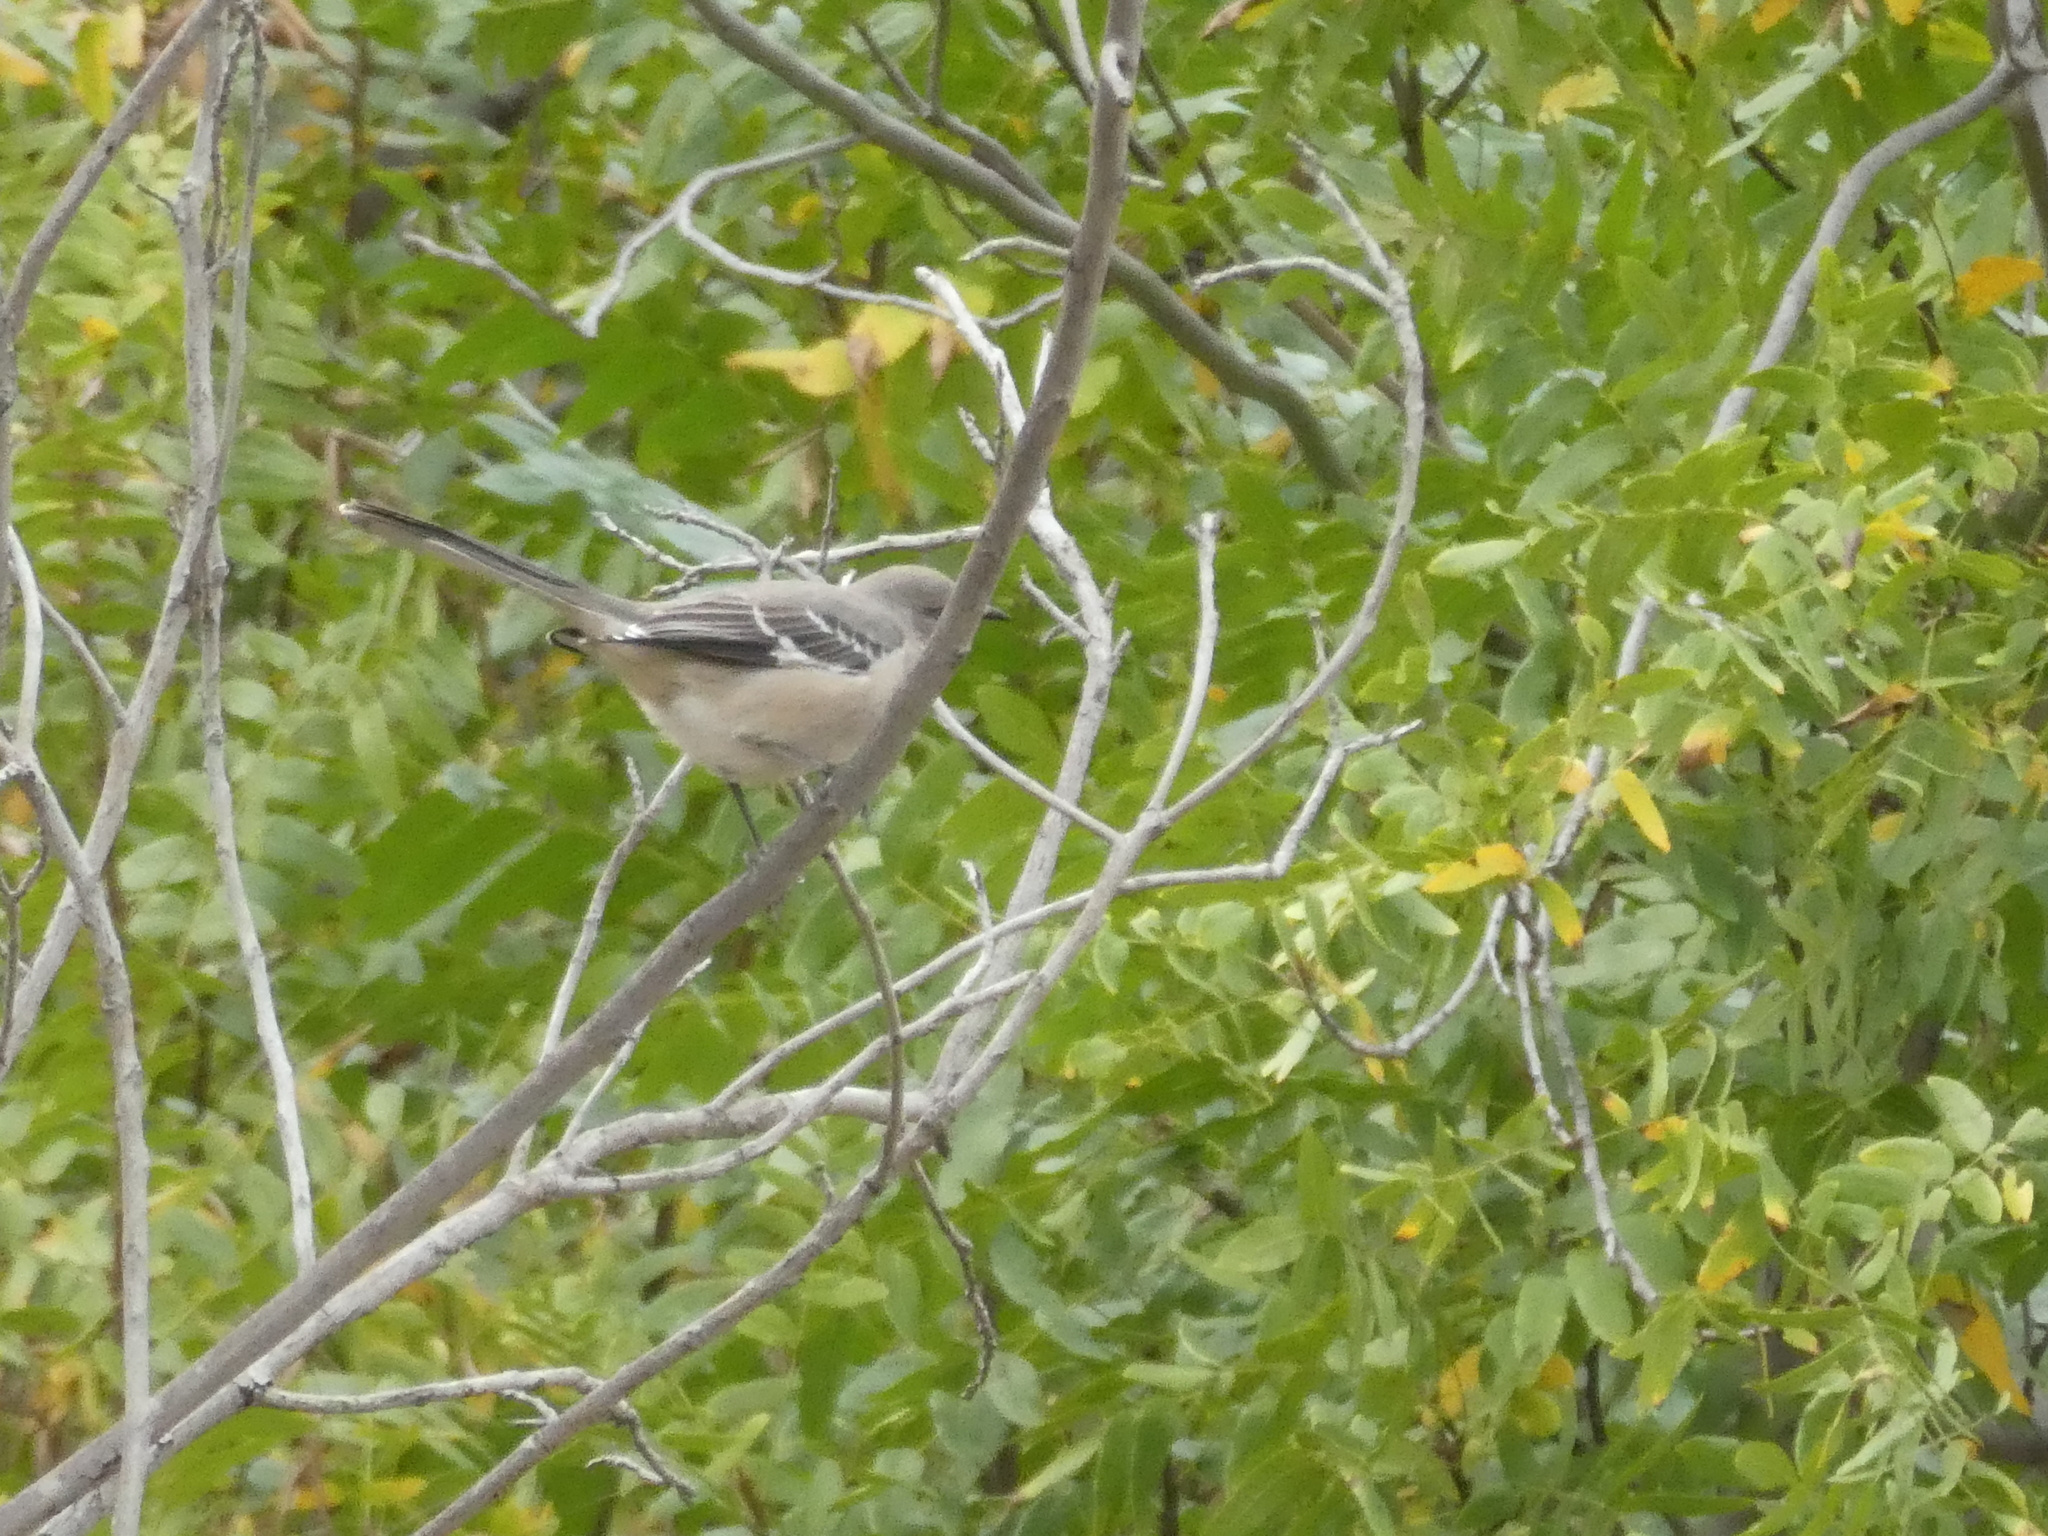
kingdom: Animalia
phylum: Chordata
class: Aves
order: Passeriformes
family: Mimidae
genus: Mimus
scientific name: Mimus polyglottos
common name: Northern mockingbird
